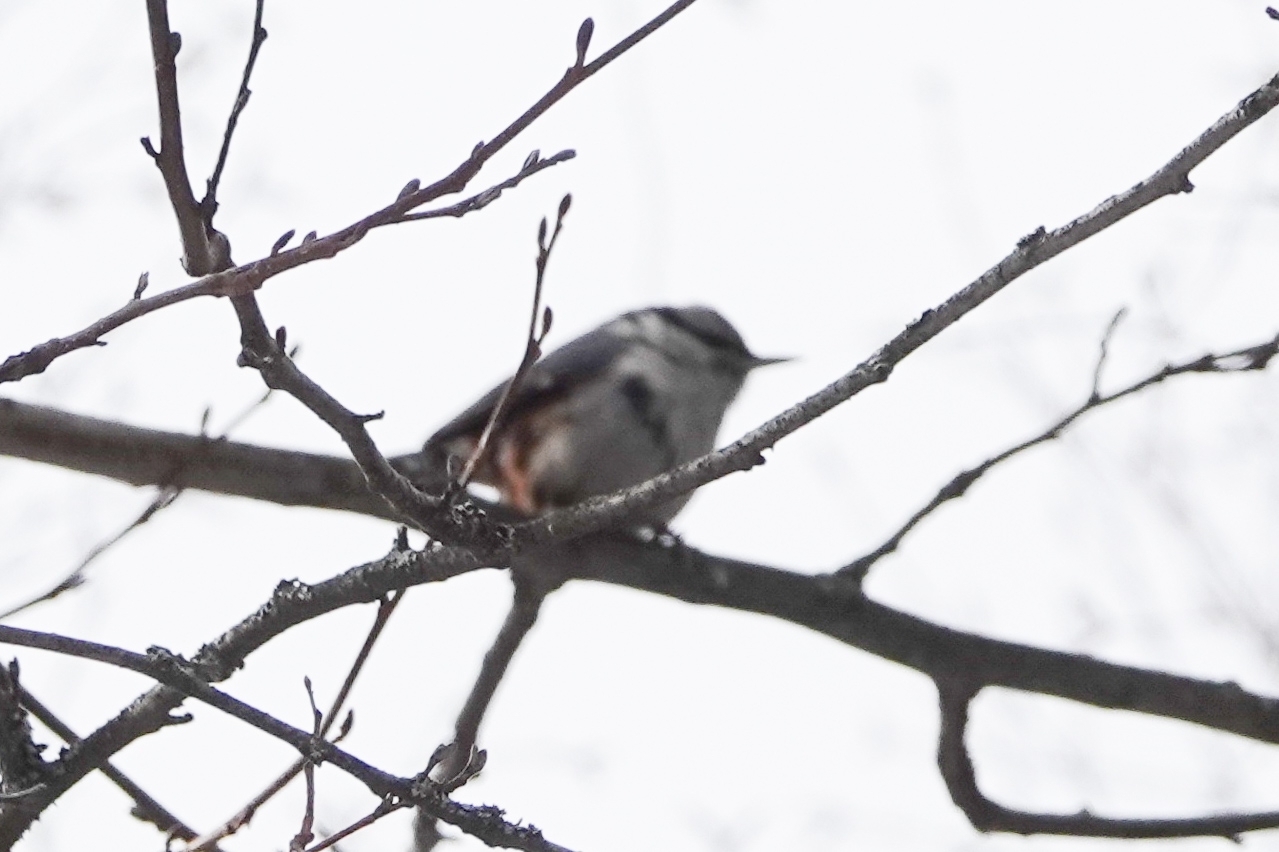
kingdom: Animalia
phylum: Chordata
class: Aves
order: Passeriformes
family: Sittidae
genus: Sitta
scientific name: Sitta europaea
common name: Eurasian nuthatch
